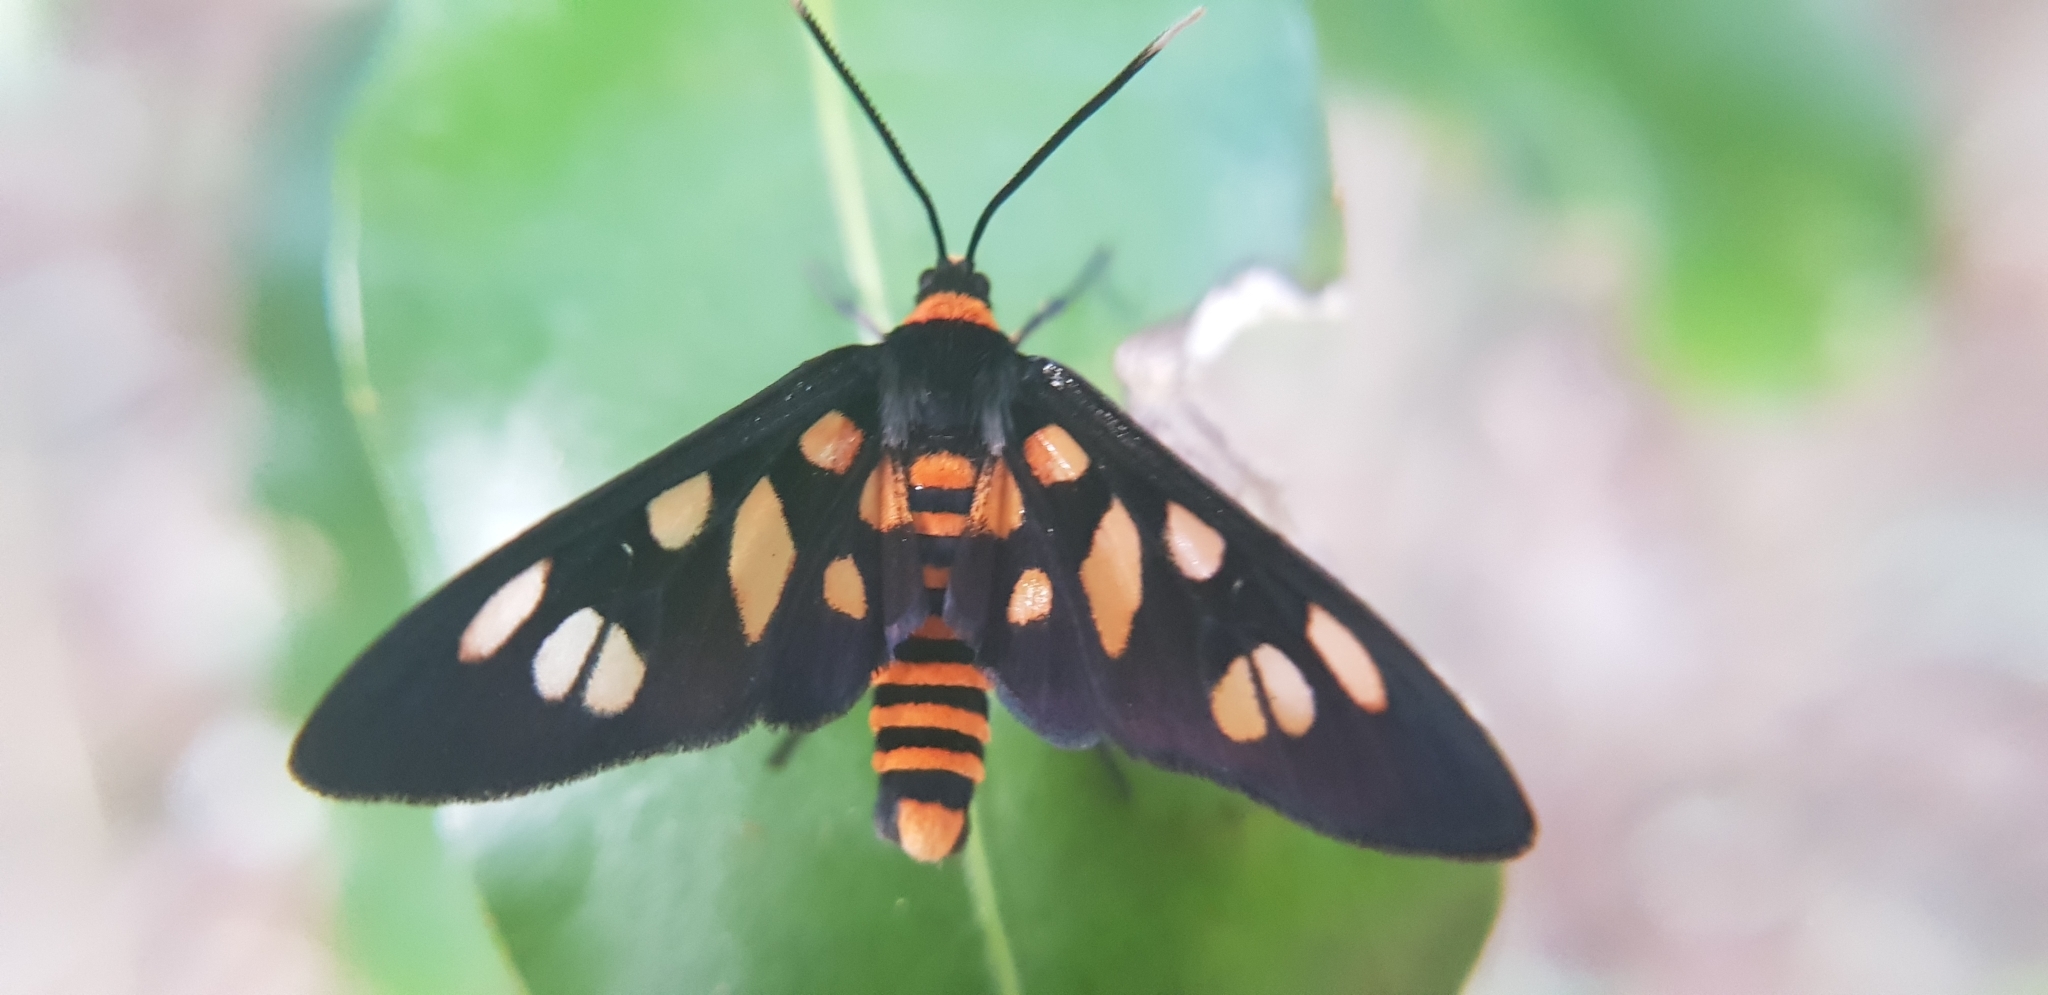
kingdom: Animalia
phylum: Arthropoda
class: Insecta
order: Lepidoptera
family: Erebidae
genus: Amata
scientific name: Amata nigriceps
